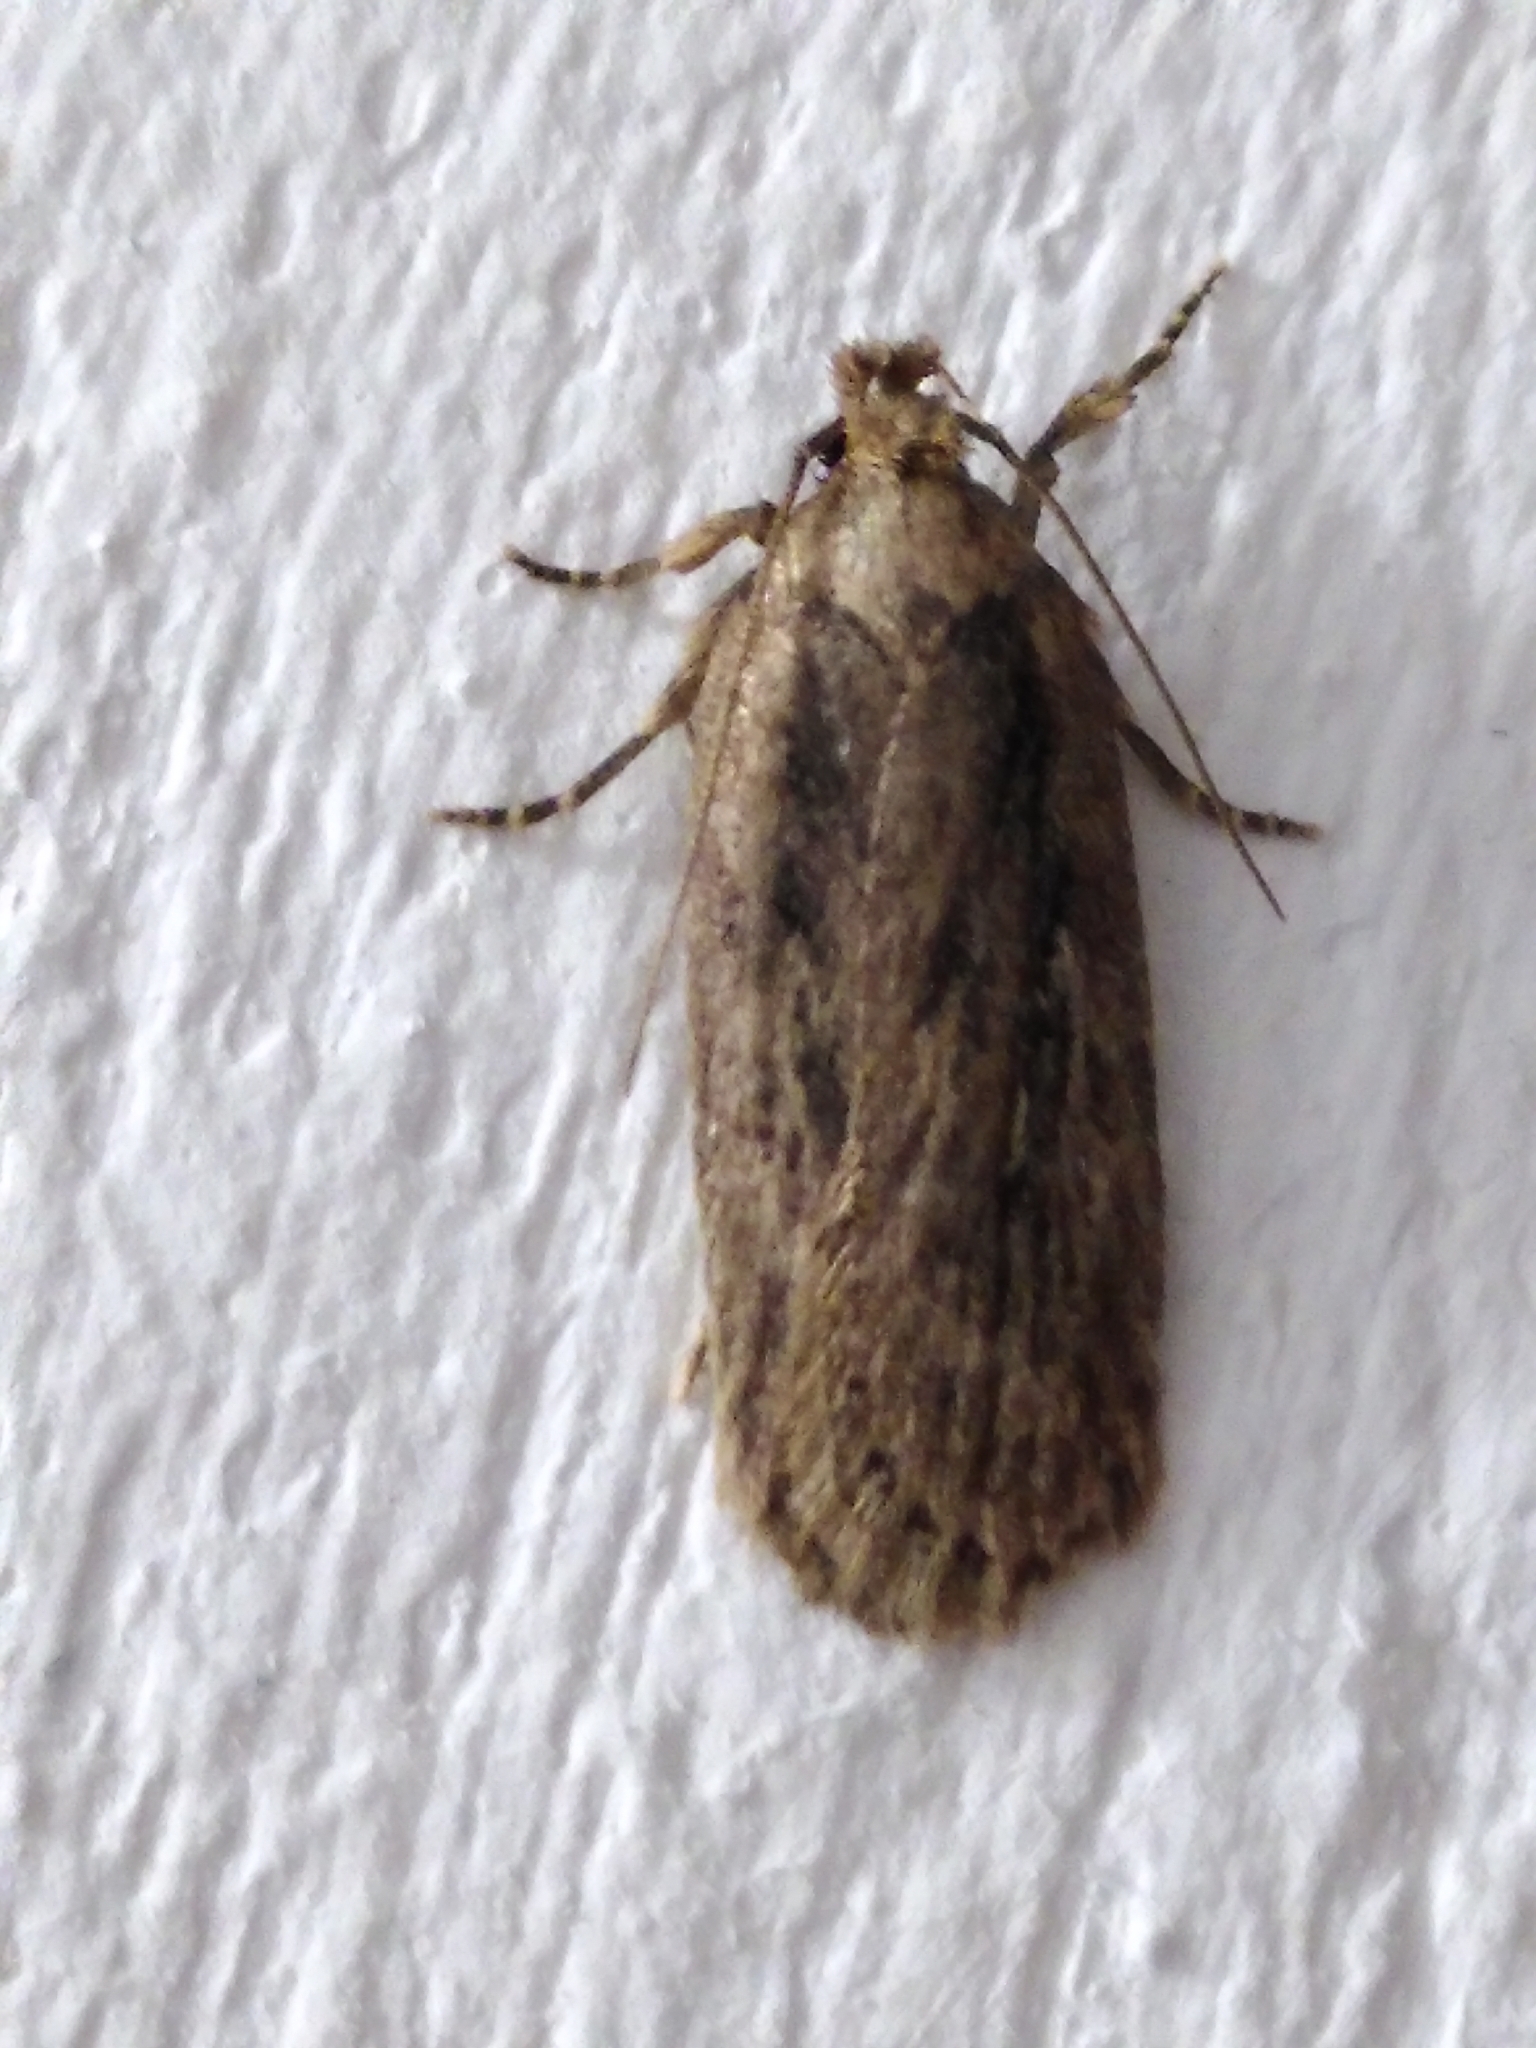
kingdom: Animalia
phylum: Arthropoda
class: Insecta
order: Lepidoptera
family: Oecophoridae
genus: Hofmannophila
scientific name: Hofmannophila pseudospretella
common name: Brown house moth
